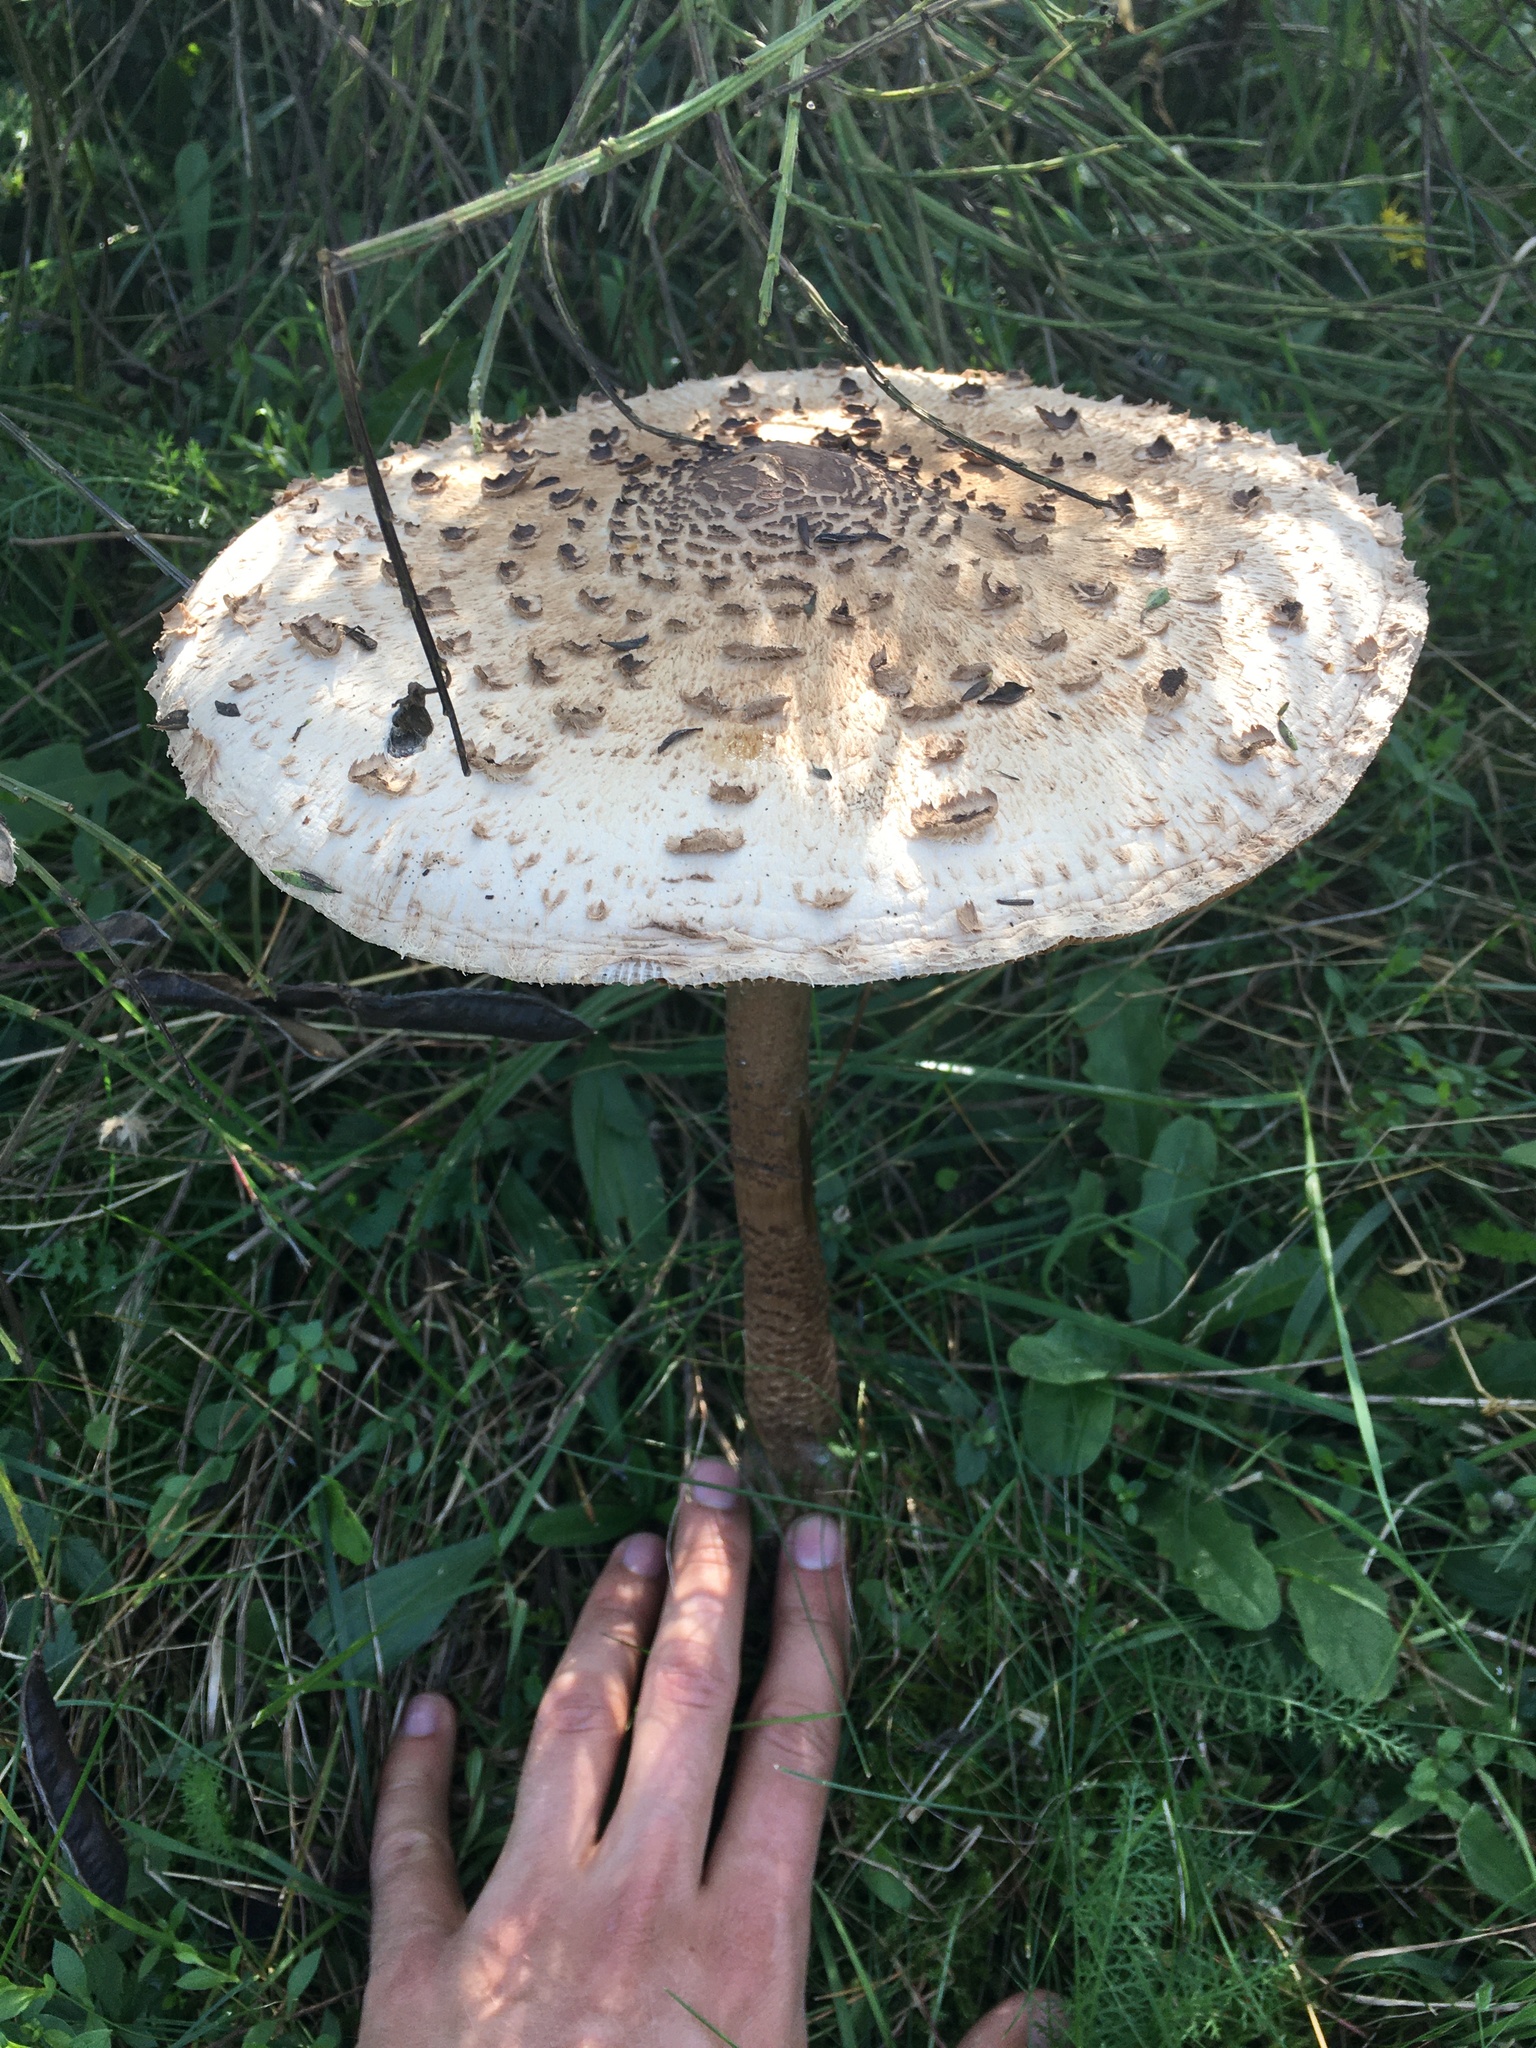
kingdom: Fungi
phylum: Basidiomycota
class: Agaricomycetes
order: Agaricales
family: Agaricaceae
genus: Macrolepiota
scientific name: Macrolepiota procera
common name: Parasol
